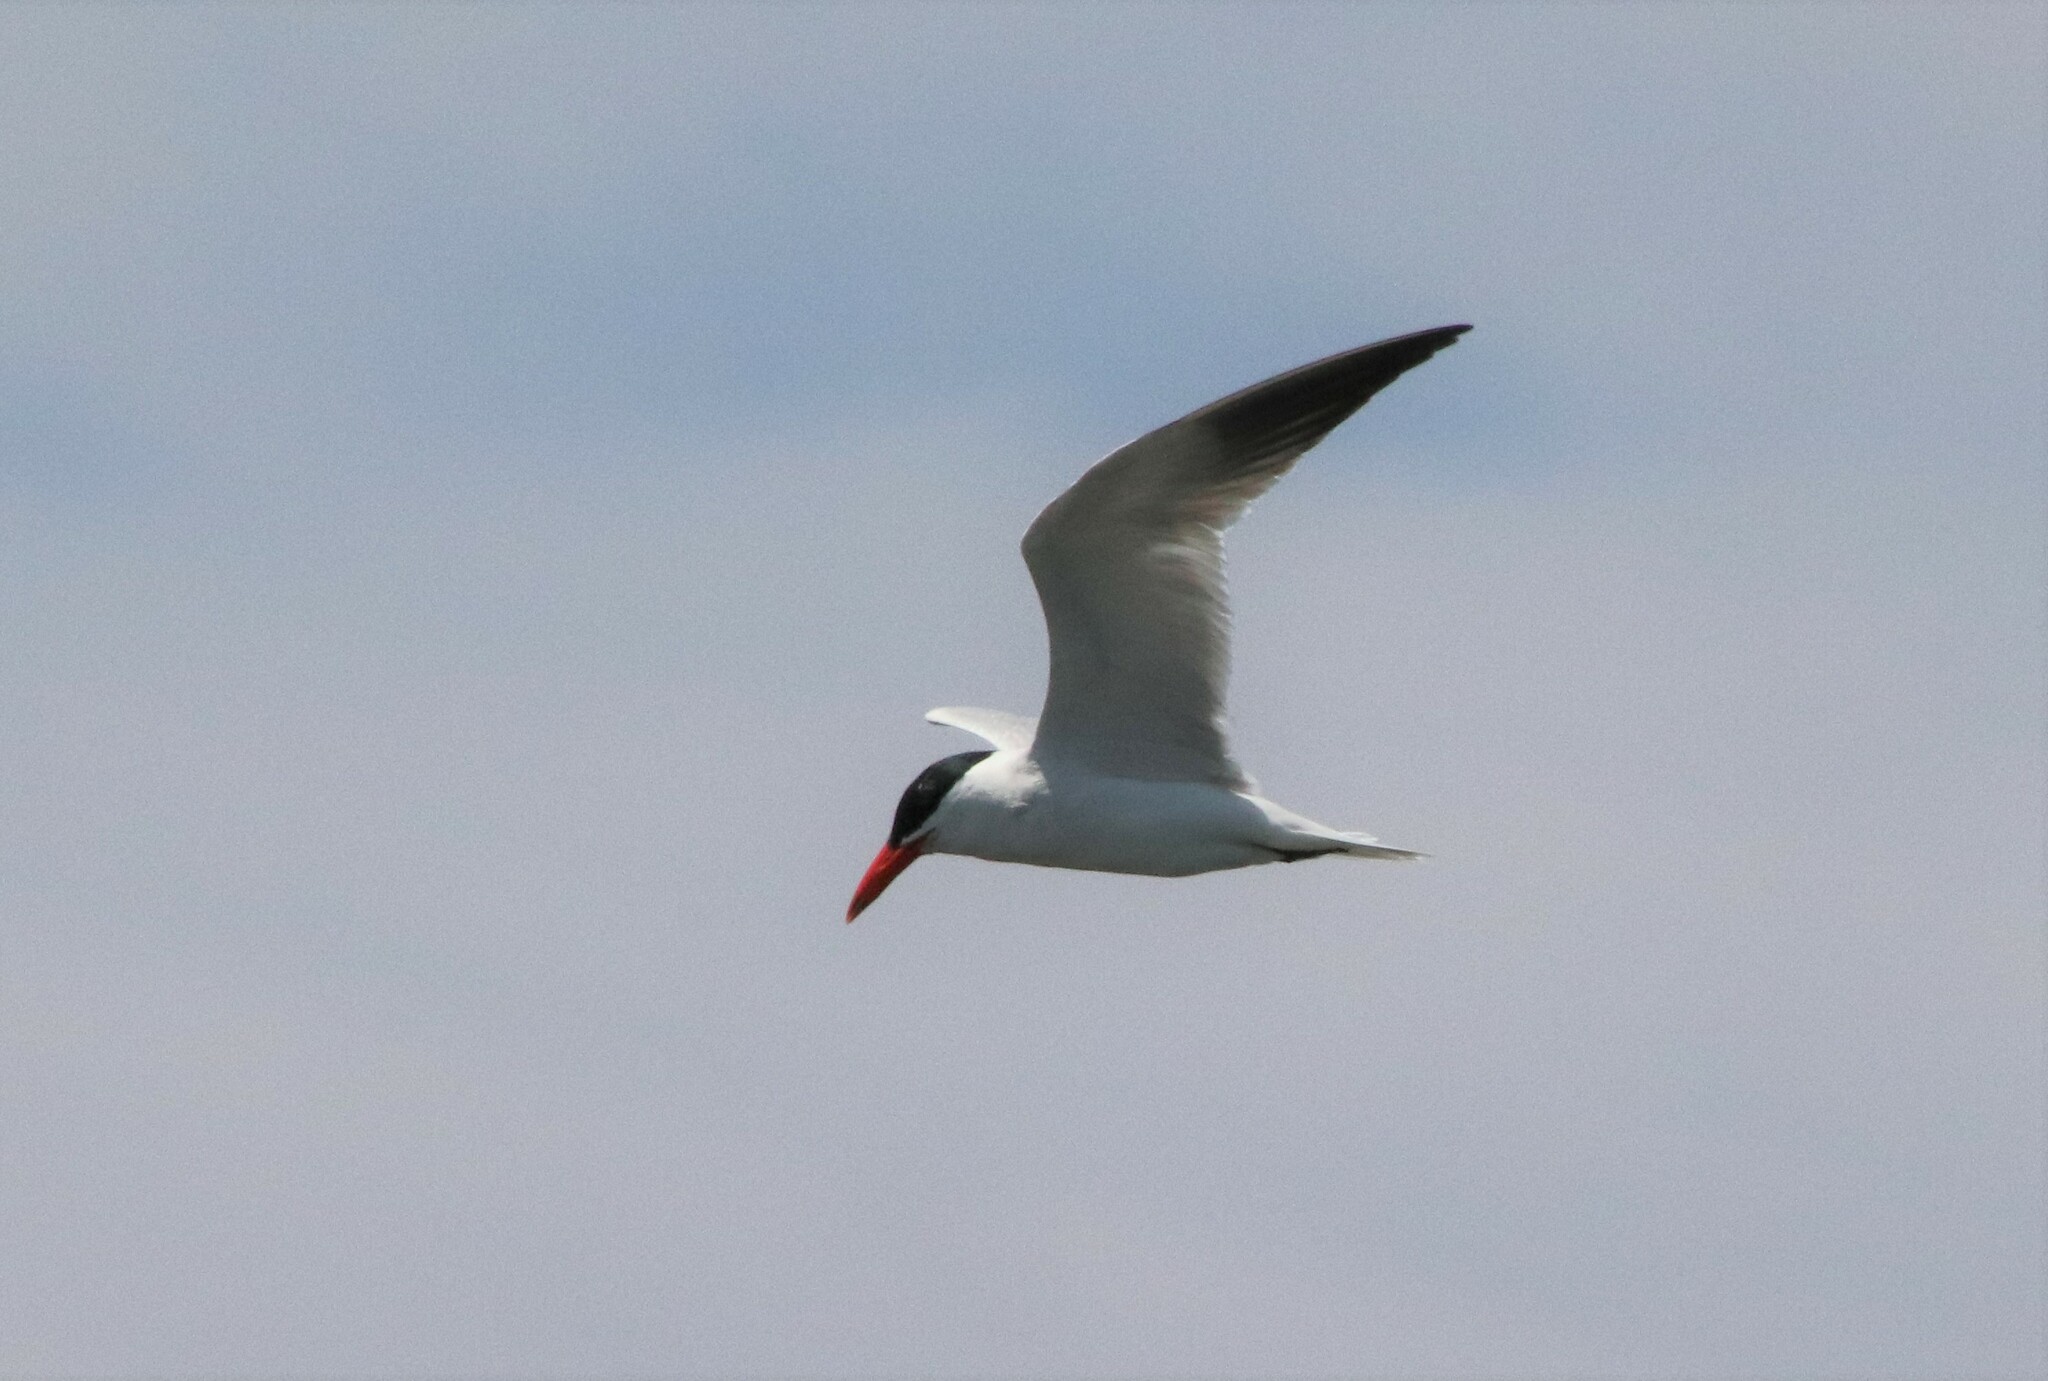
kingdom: Animalia
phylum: Chordata
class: Aves
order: Charadriiformes
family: Laridae
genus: Hydroprogne
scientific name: Hydroprogne caspia
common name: Caspian tern
